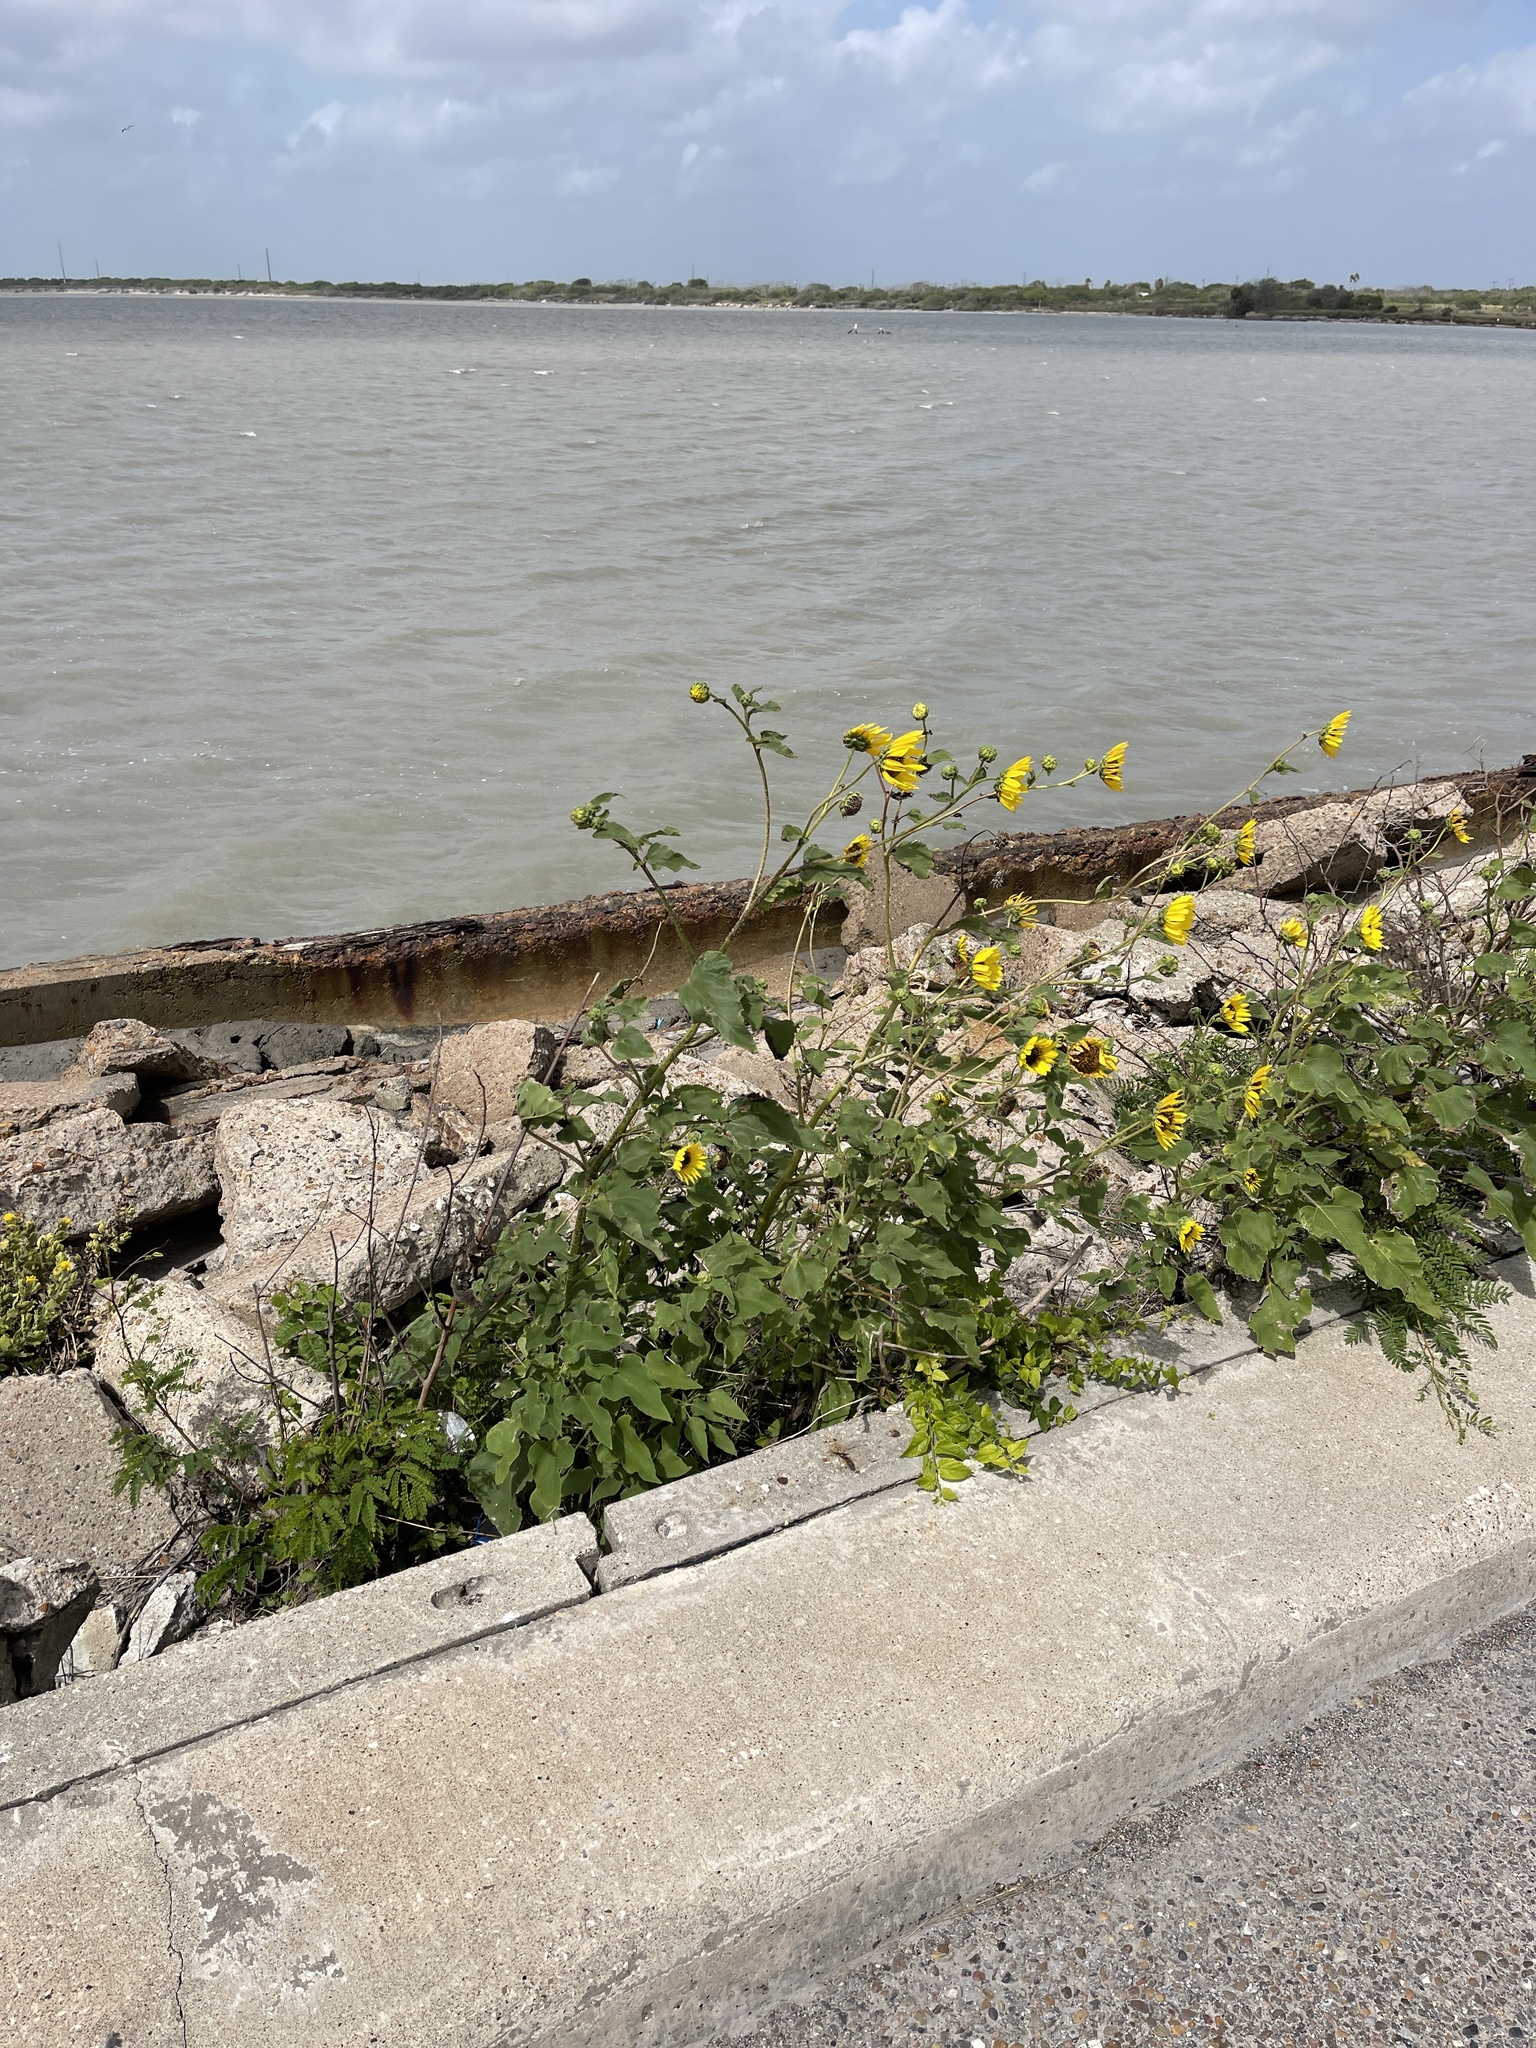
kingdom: Plantae
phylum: Tracheophyta
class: Magnoliopsida
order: Asterales
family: Asteraceae
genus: Helianthus
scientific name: Helianthus annuus
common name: Sunflower
